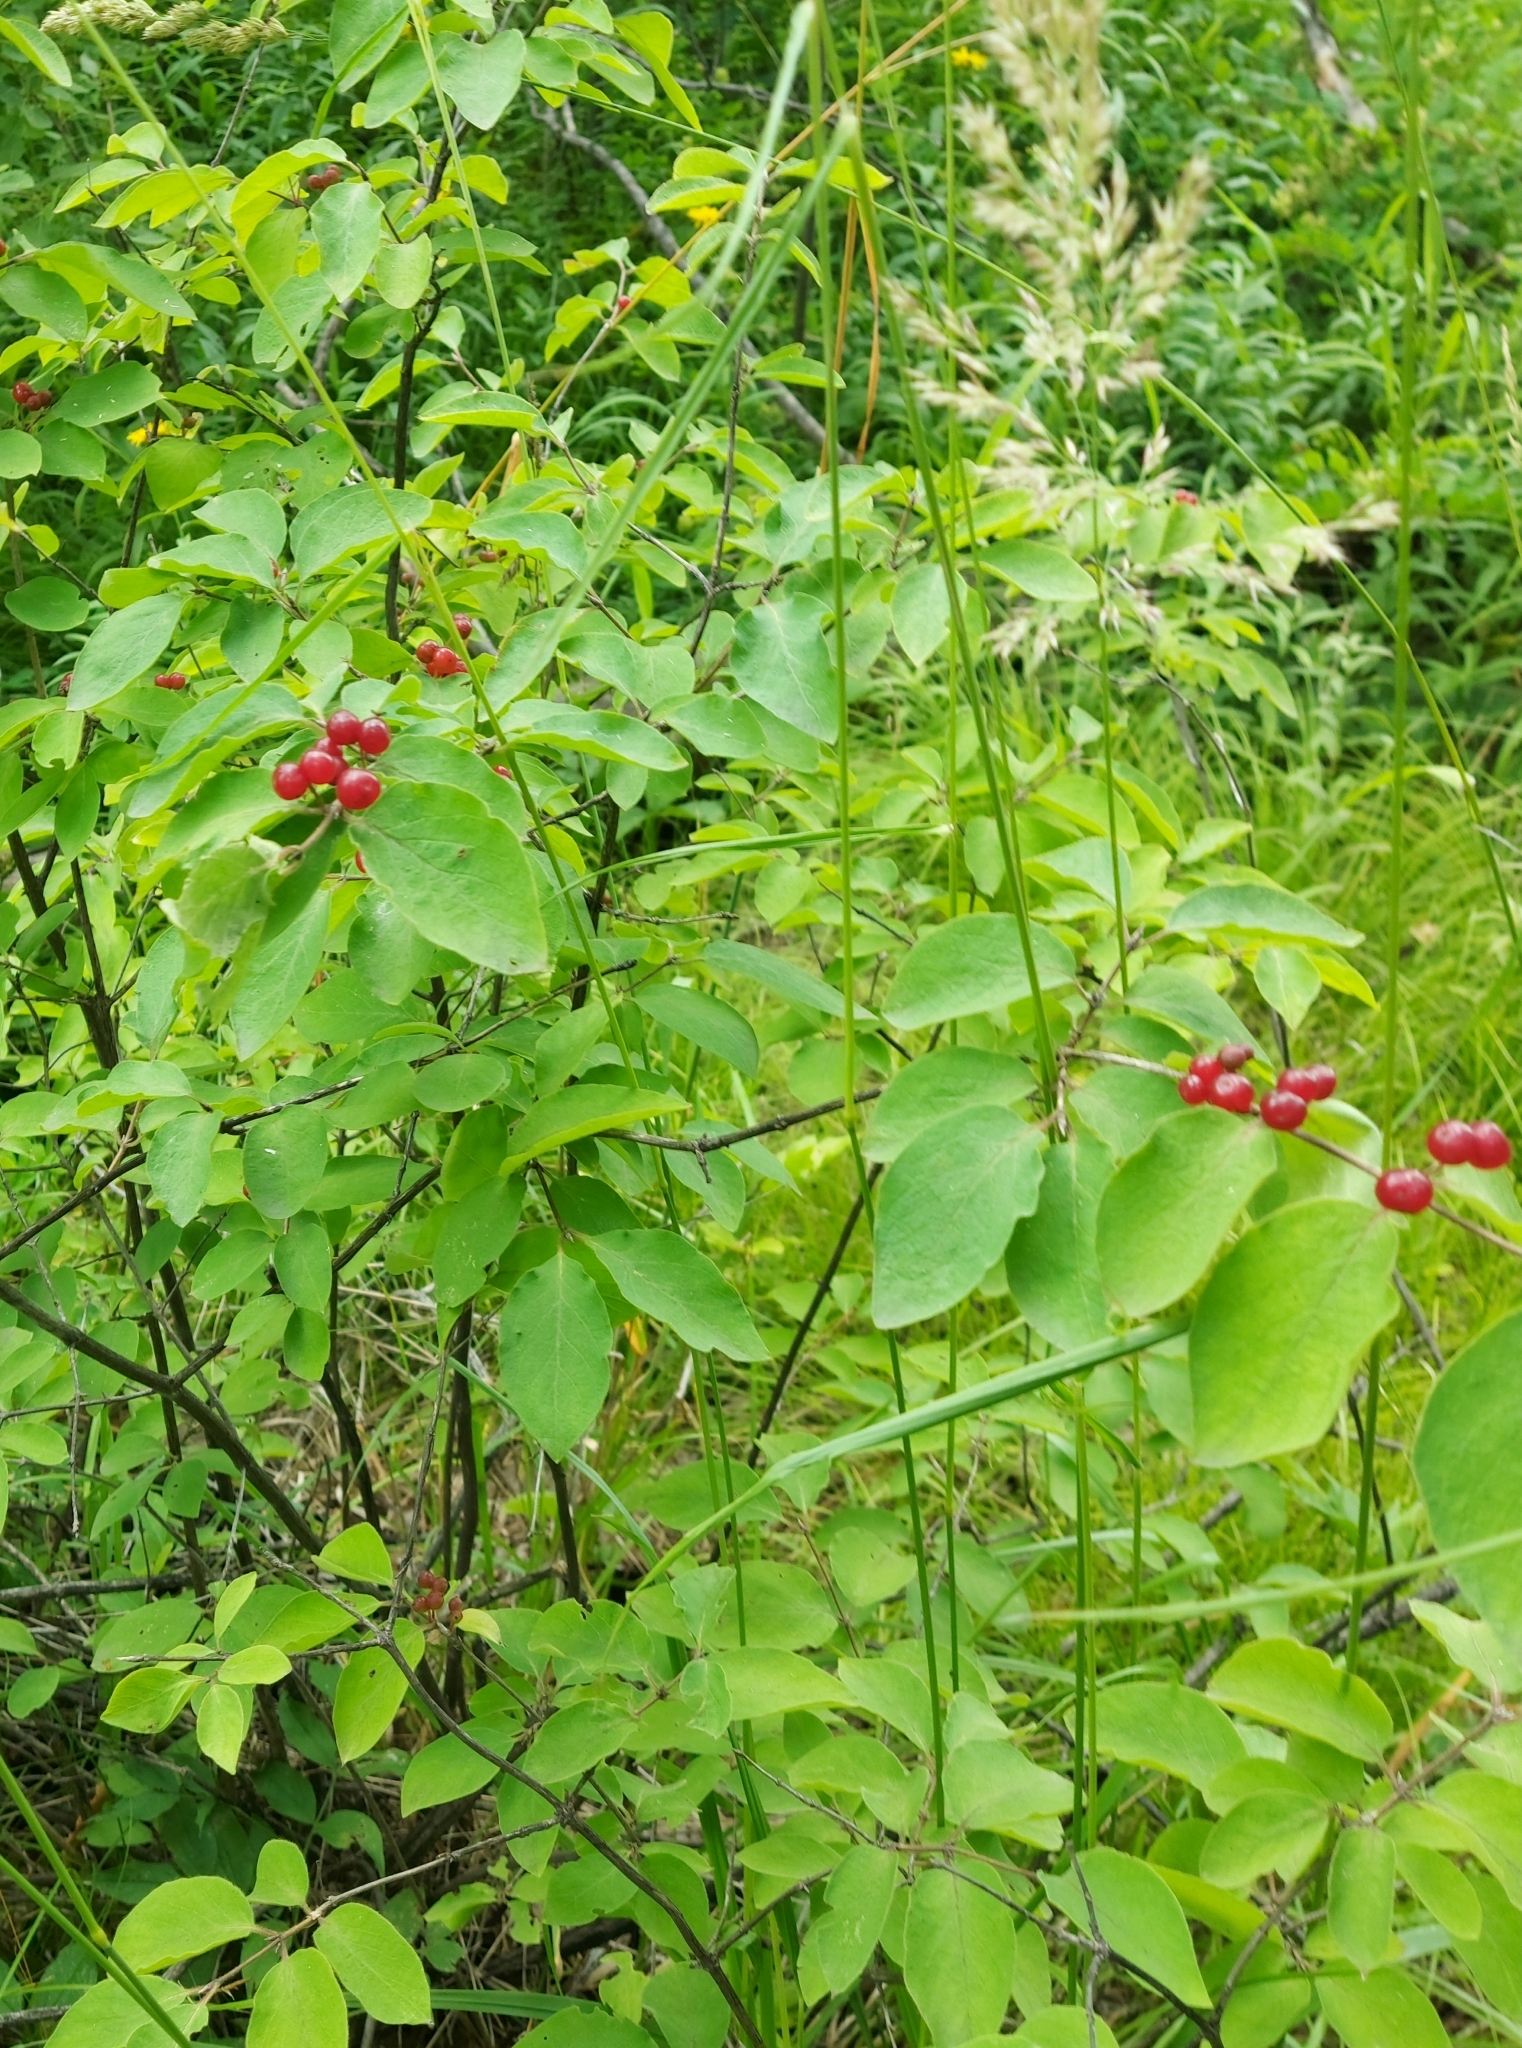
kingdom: Plantae
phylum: Tracheophyta
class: Magnoliopsida
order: Dipsacales
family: Caprifoliaceae
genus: Lonicera
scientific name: Lonicera xylosteum
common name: Fly honeysuckle
